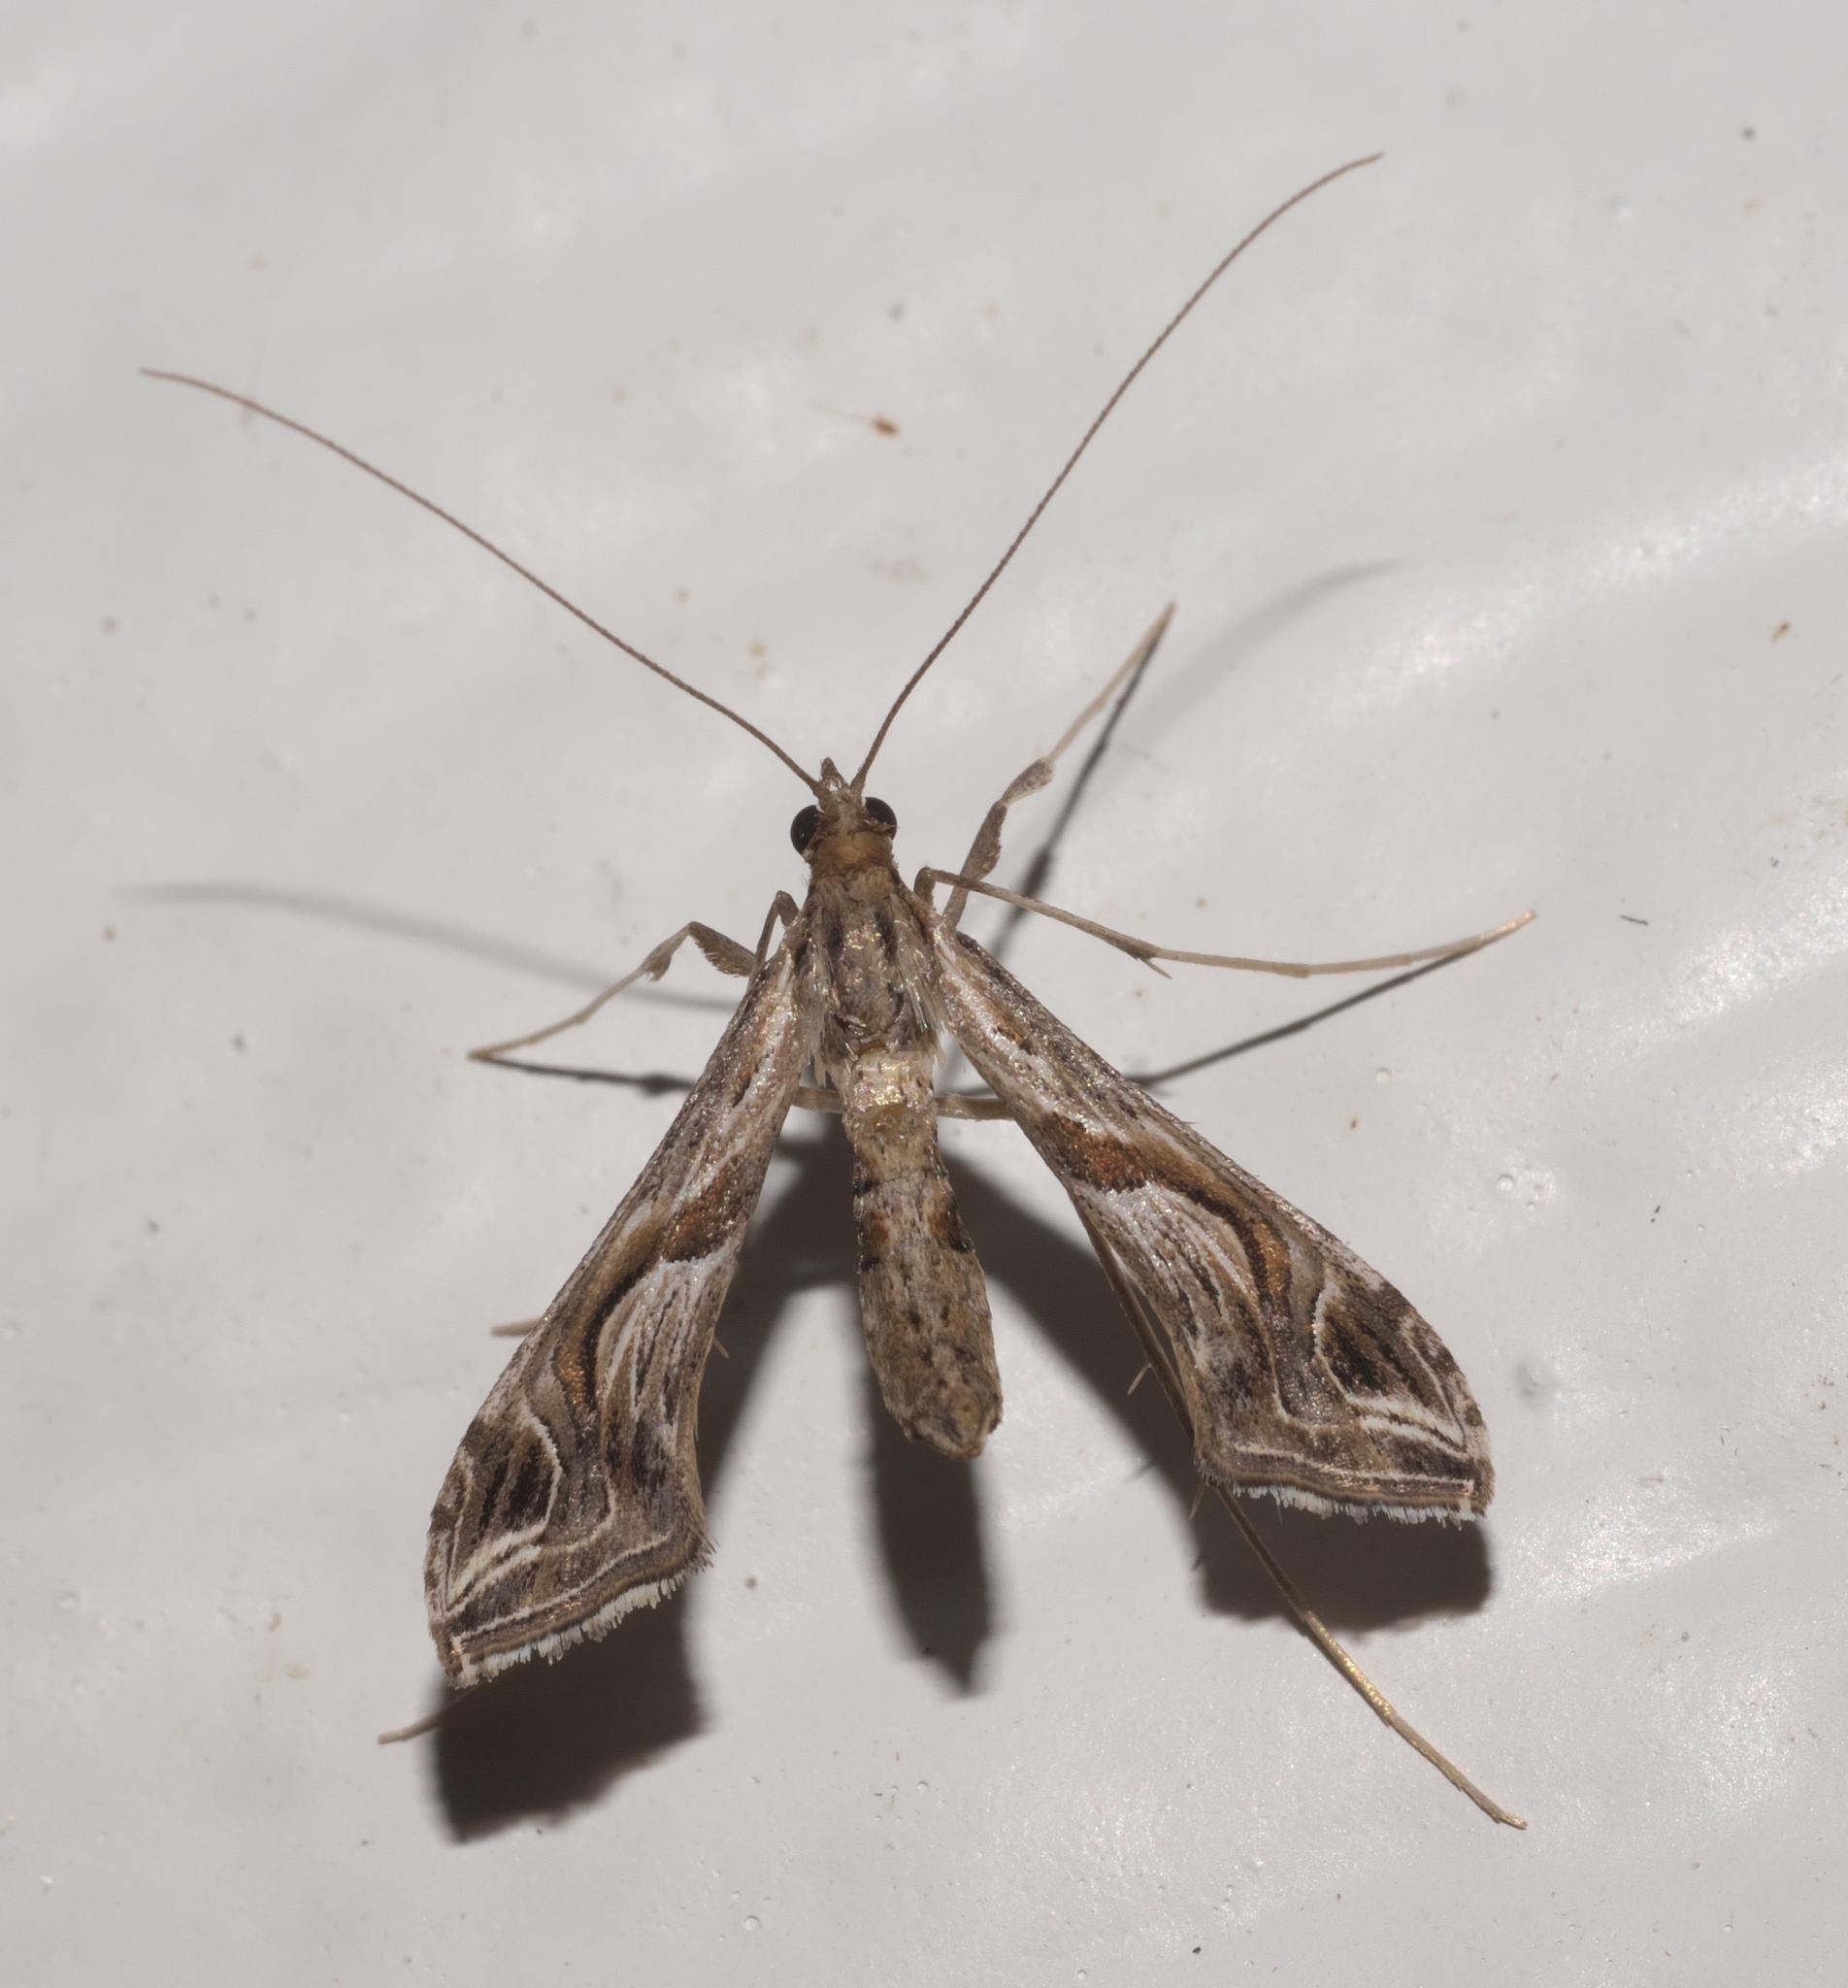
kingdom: Animalia
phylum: Arthropoda
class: Insecta
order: Lepidoptera
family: Crambidae
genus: Lineodes
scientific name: Lineodes integra
